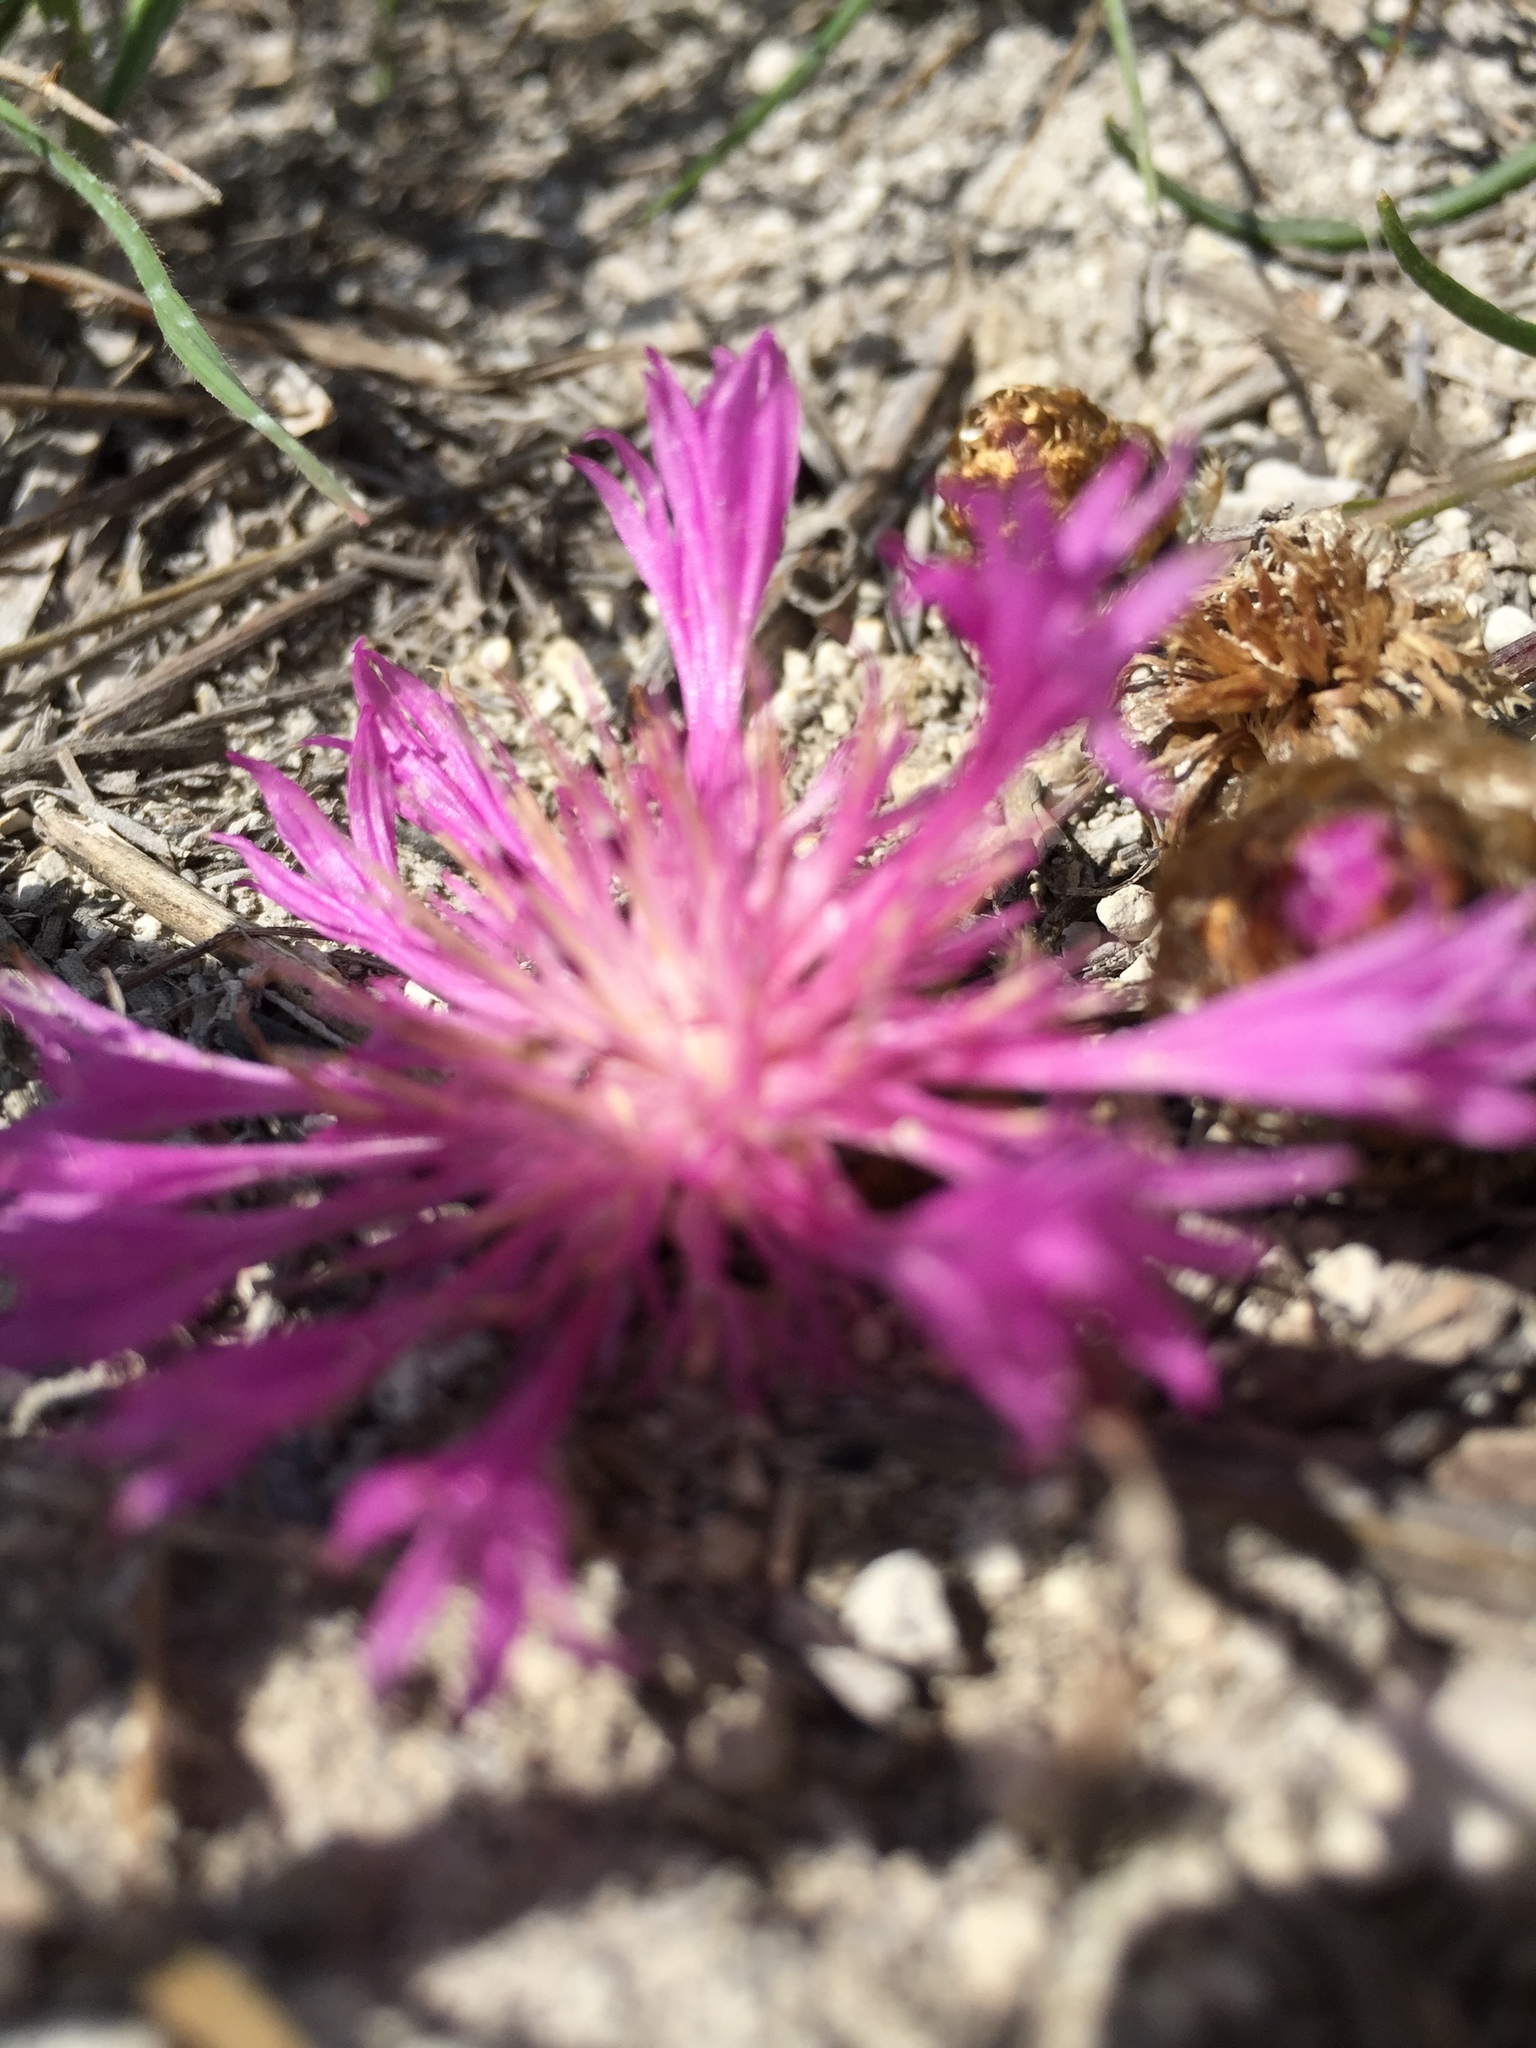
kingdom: Plantae
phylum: Tracheophyta
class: Magnoliopsida
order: Asterales
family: Asteraceae
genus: Psephellus
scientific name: Psephellus marschallianus
